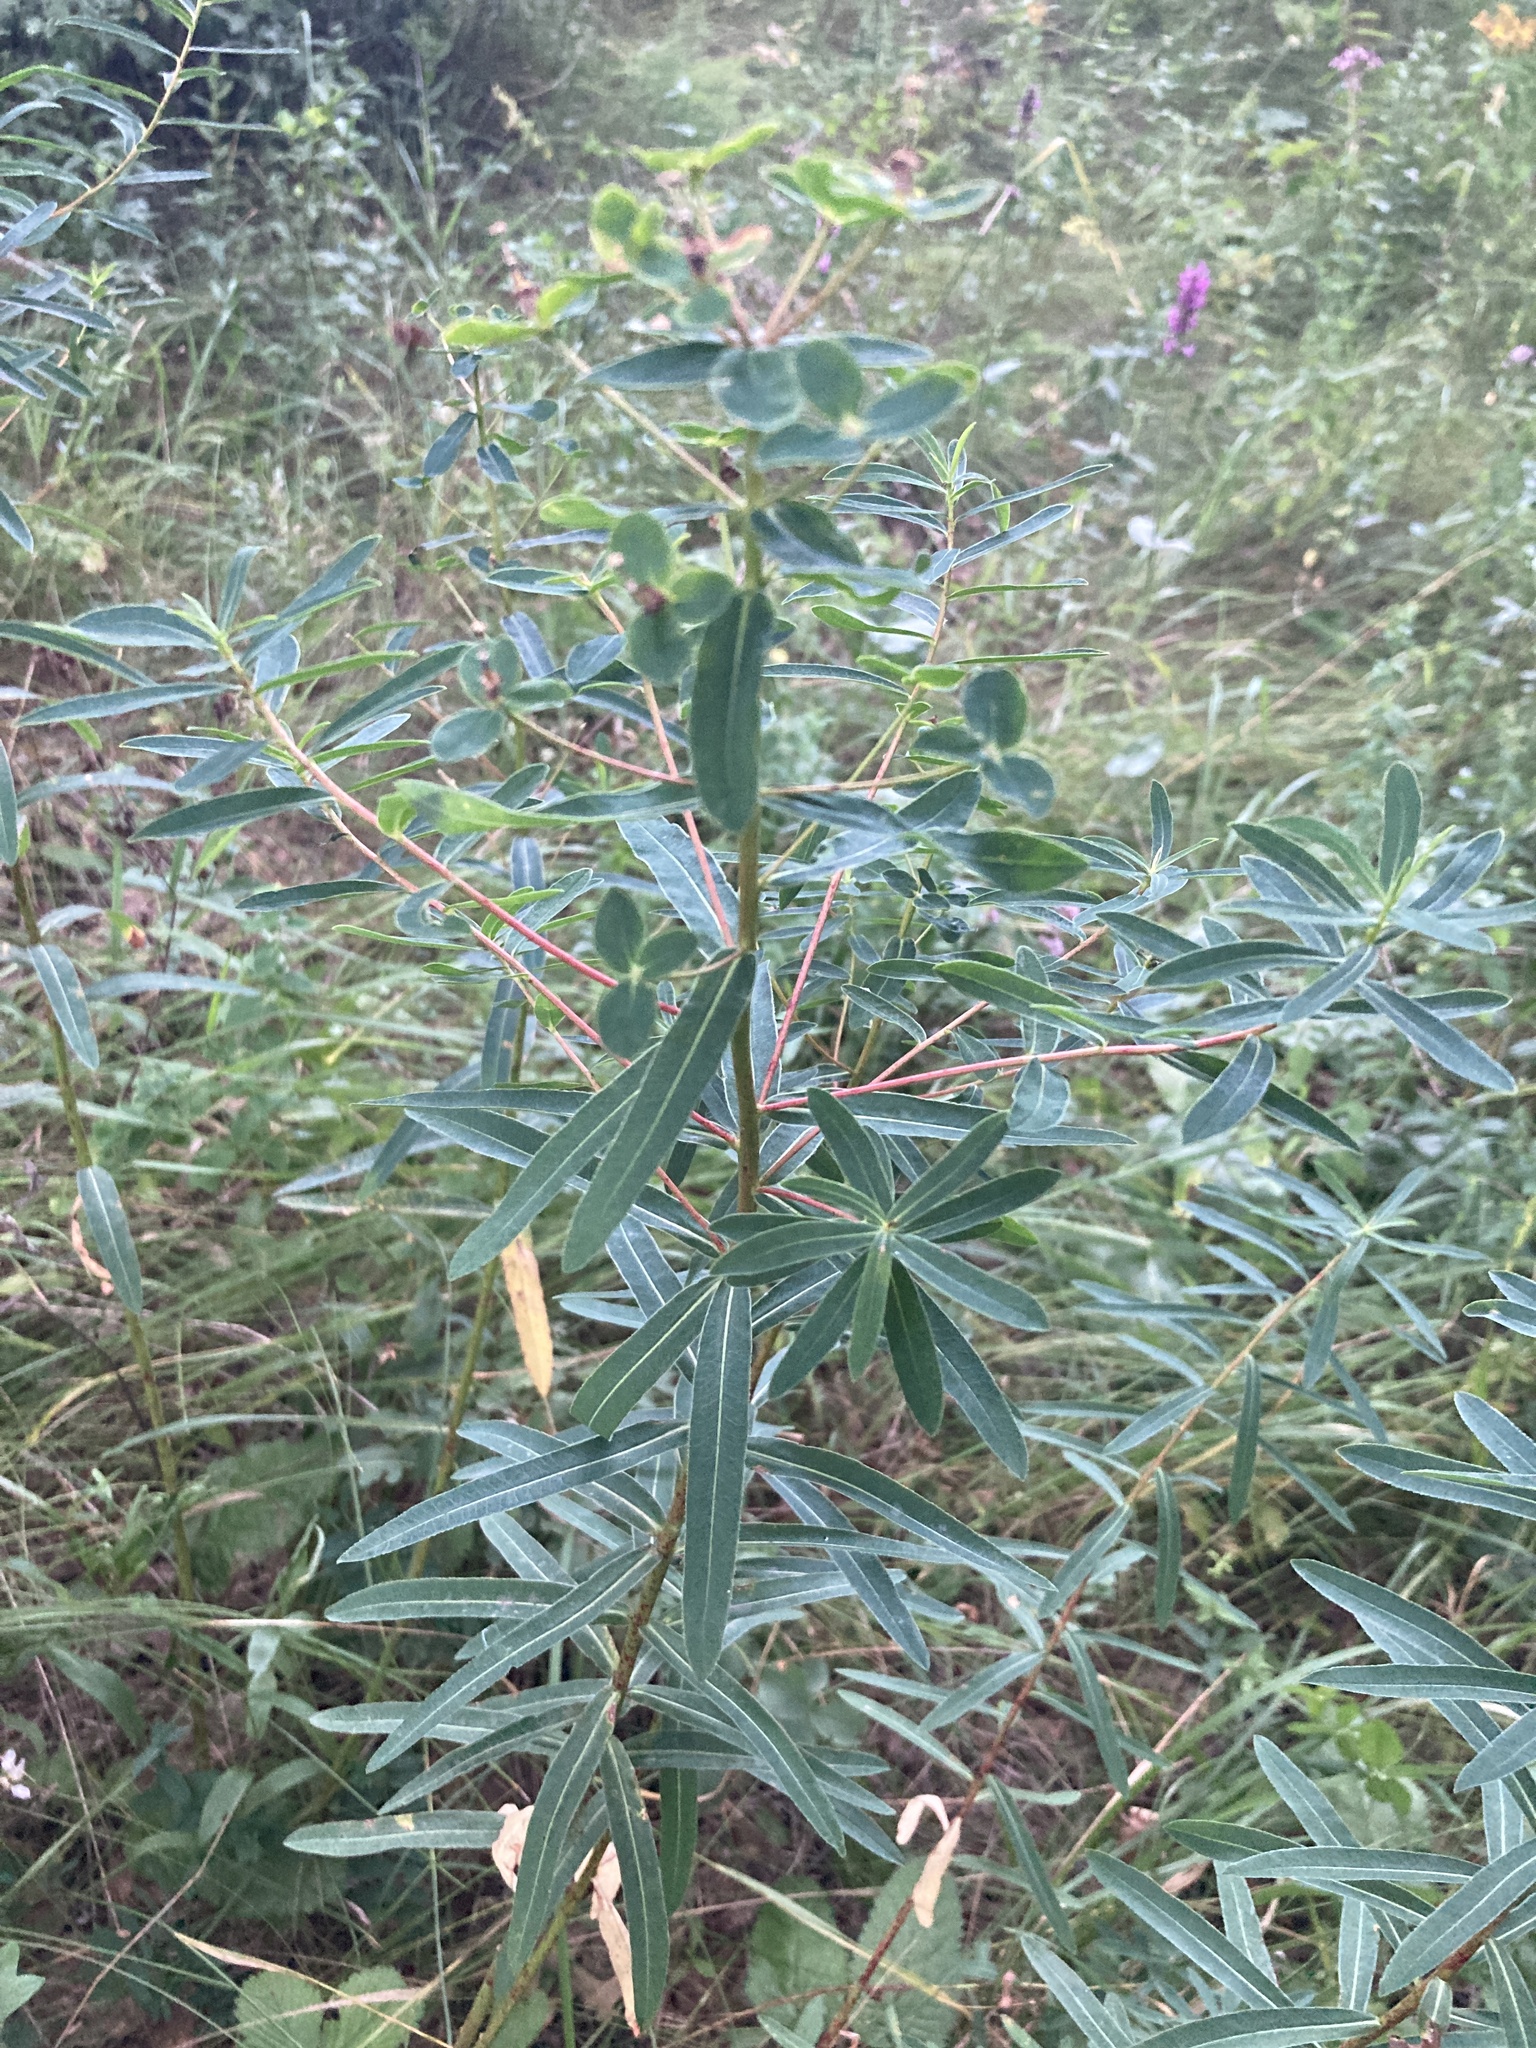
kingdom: Plantae
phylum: Tracheophyta
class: Magnoliopsida
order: Malpighiales
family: Euphorbiaceae
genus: Euphorbia
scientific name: Euphorbia semivillosa
